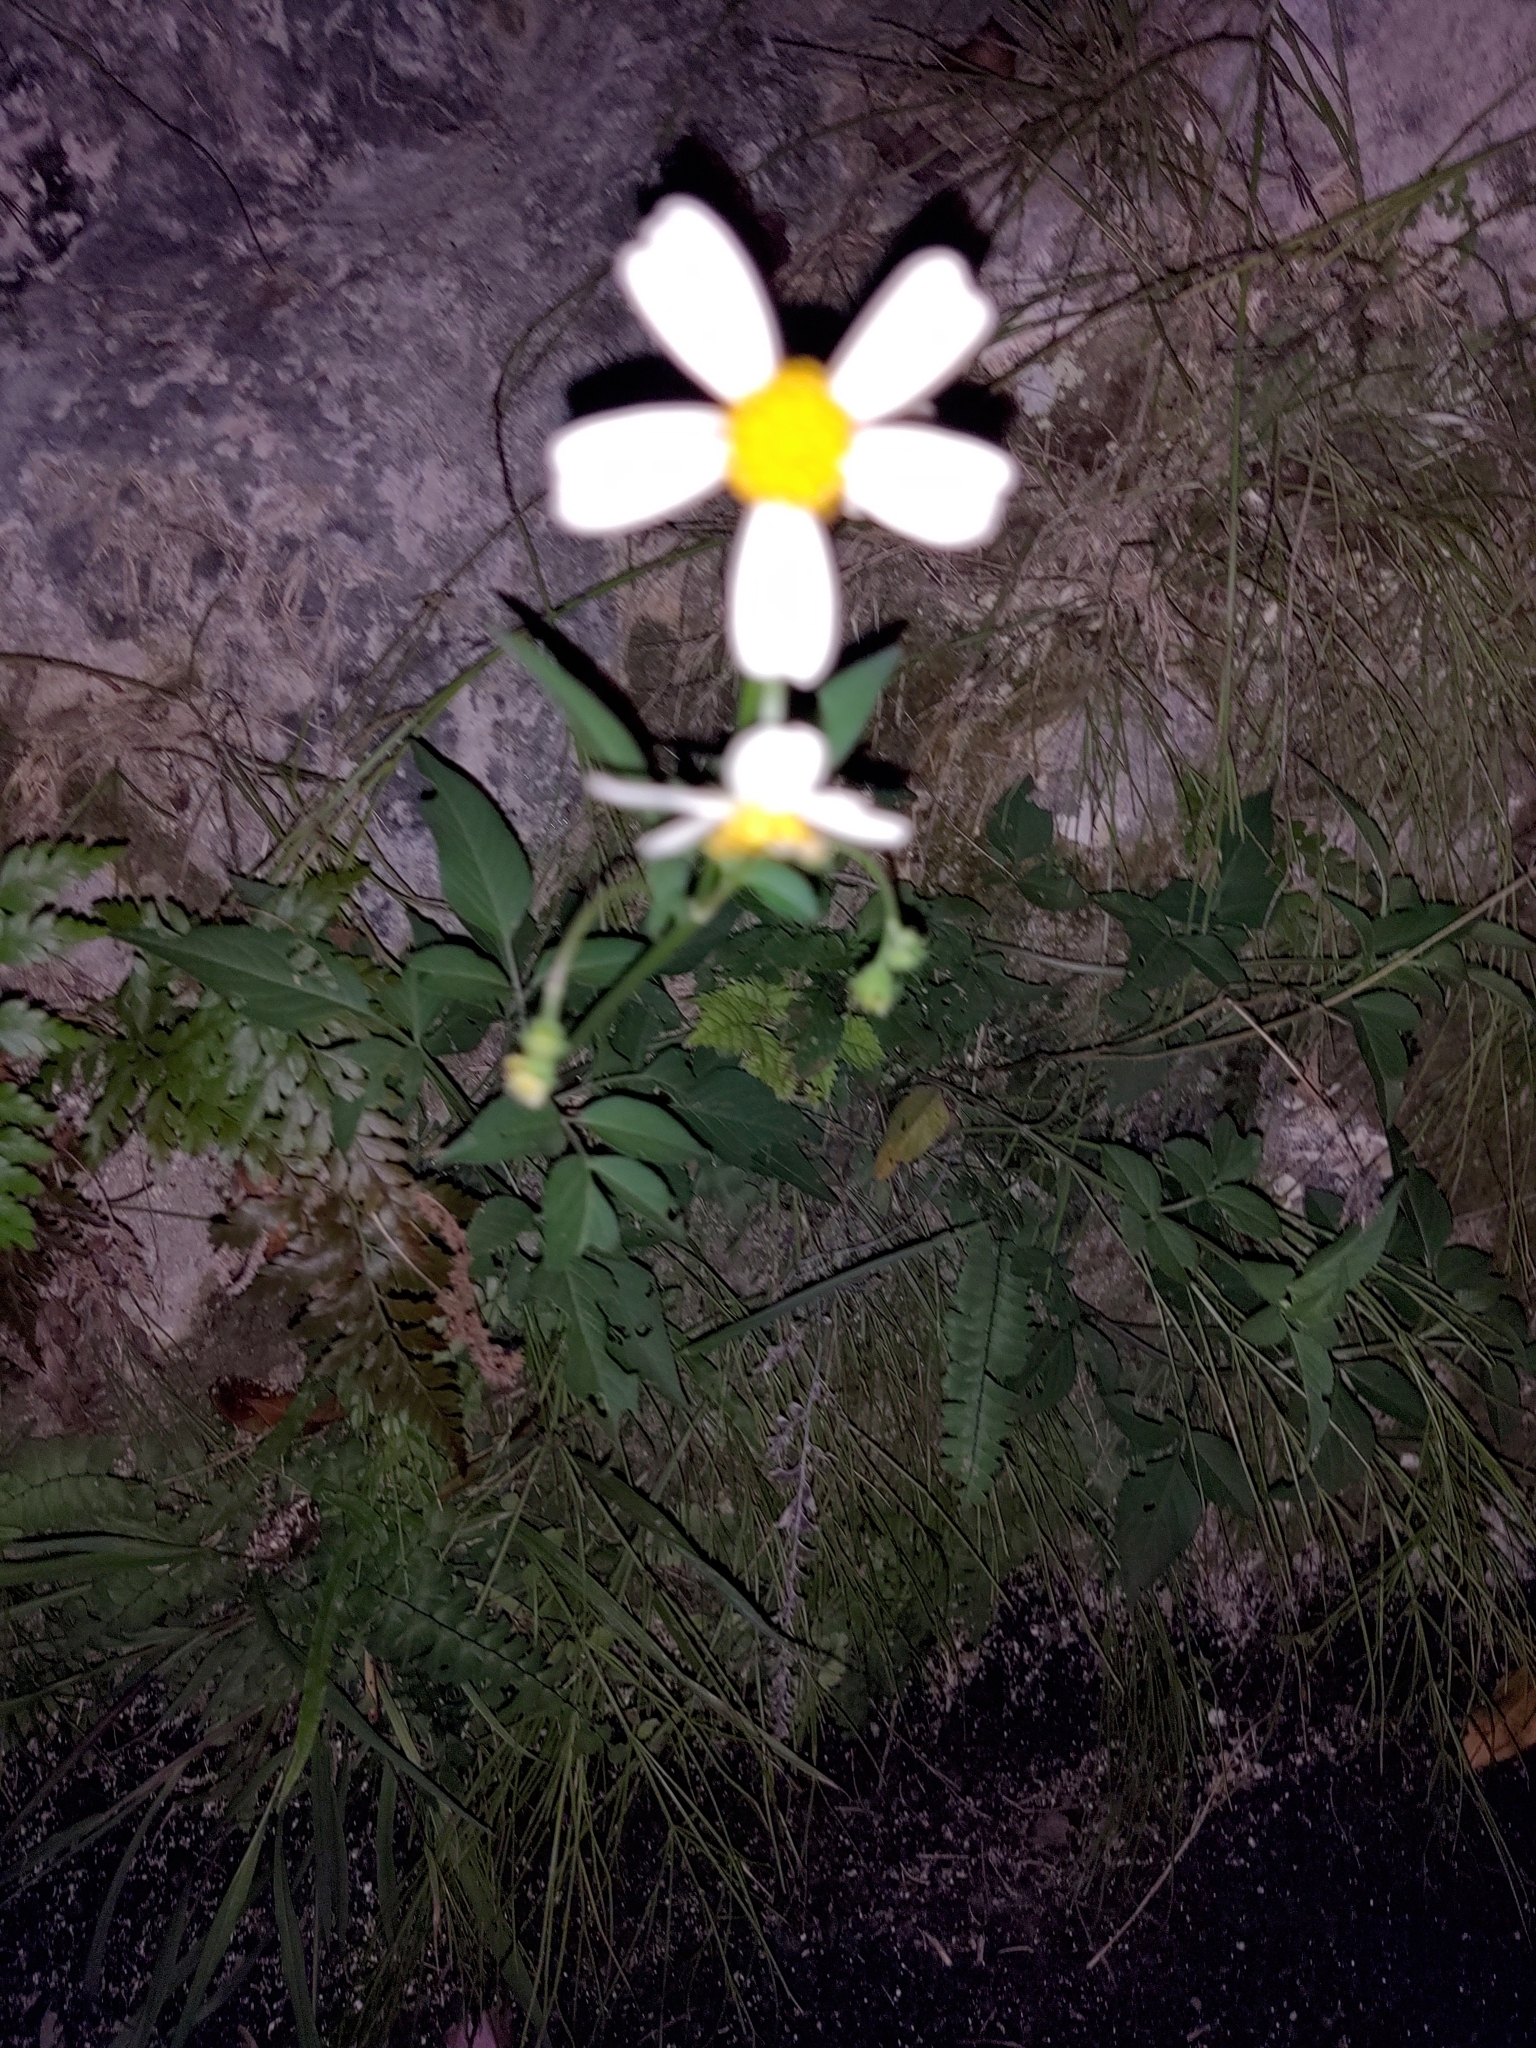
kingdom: Plantae
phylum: Tracheophyta
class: Magnoliopsida
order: Asterales
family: Asteraceae
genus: Bidens
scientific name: Bidens alba
